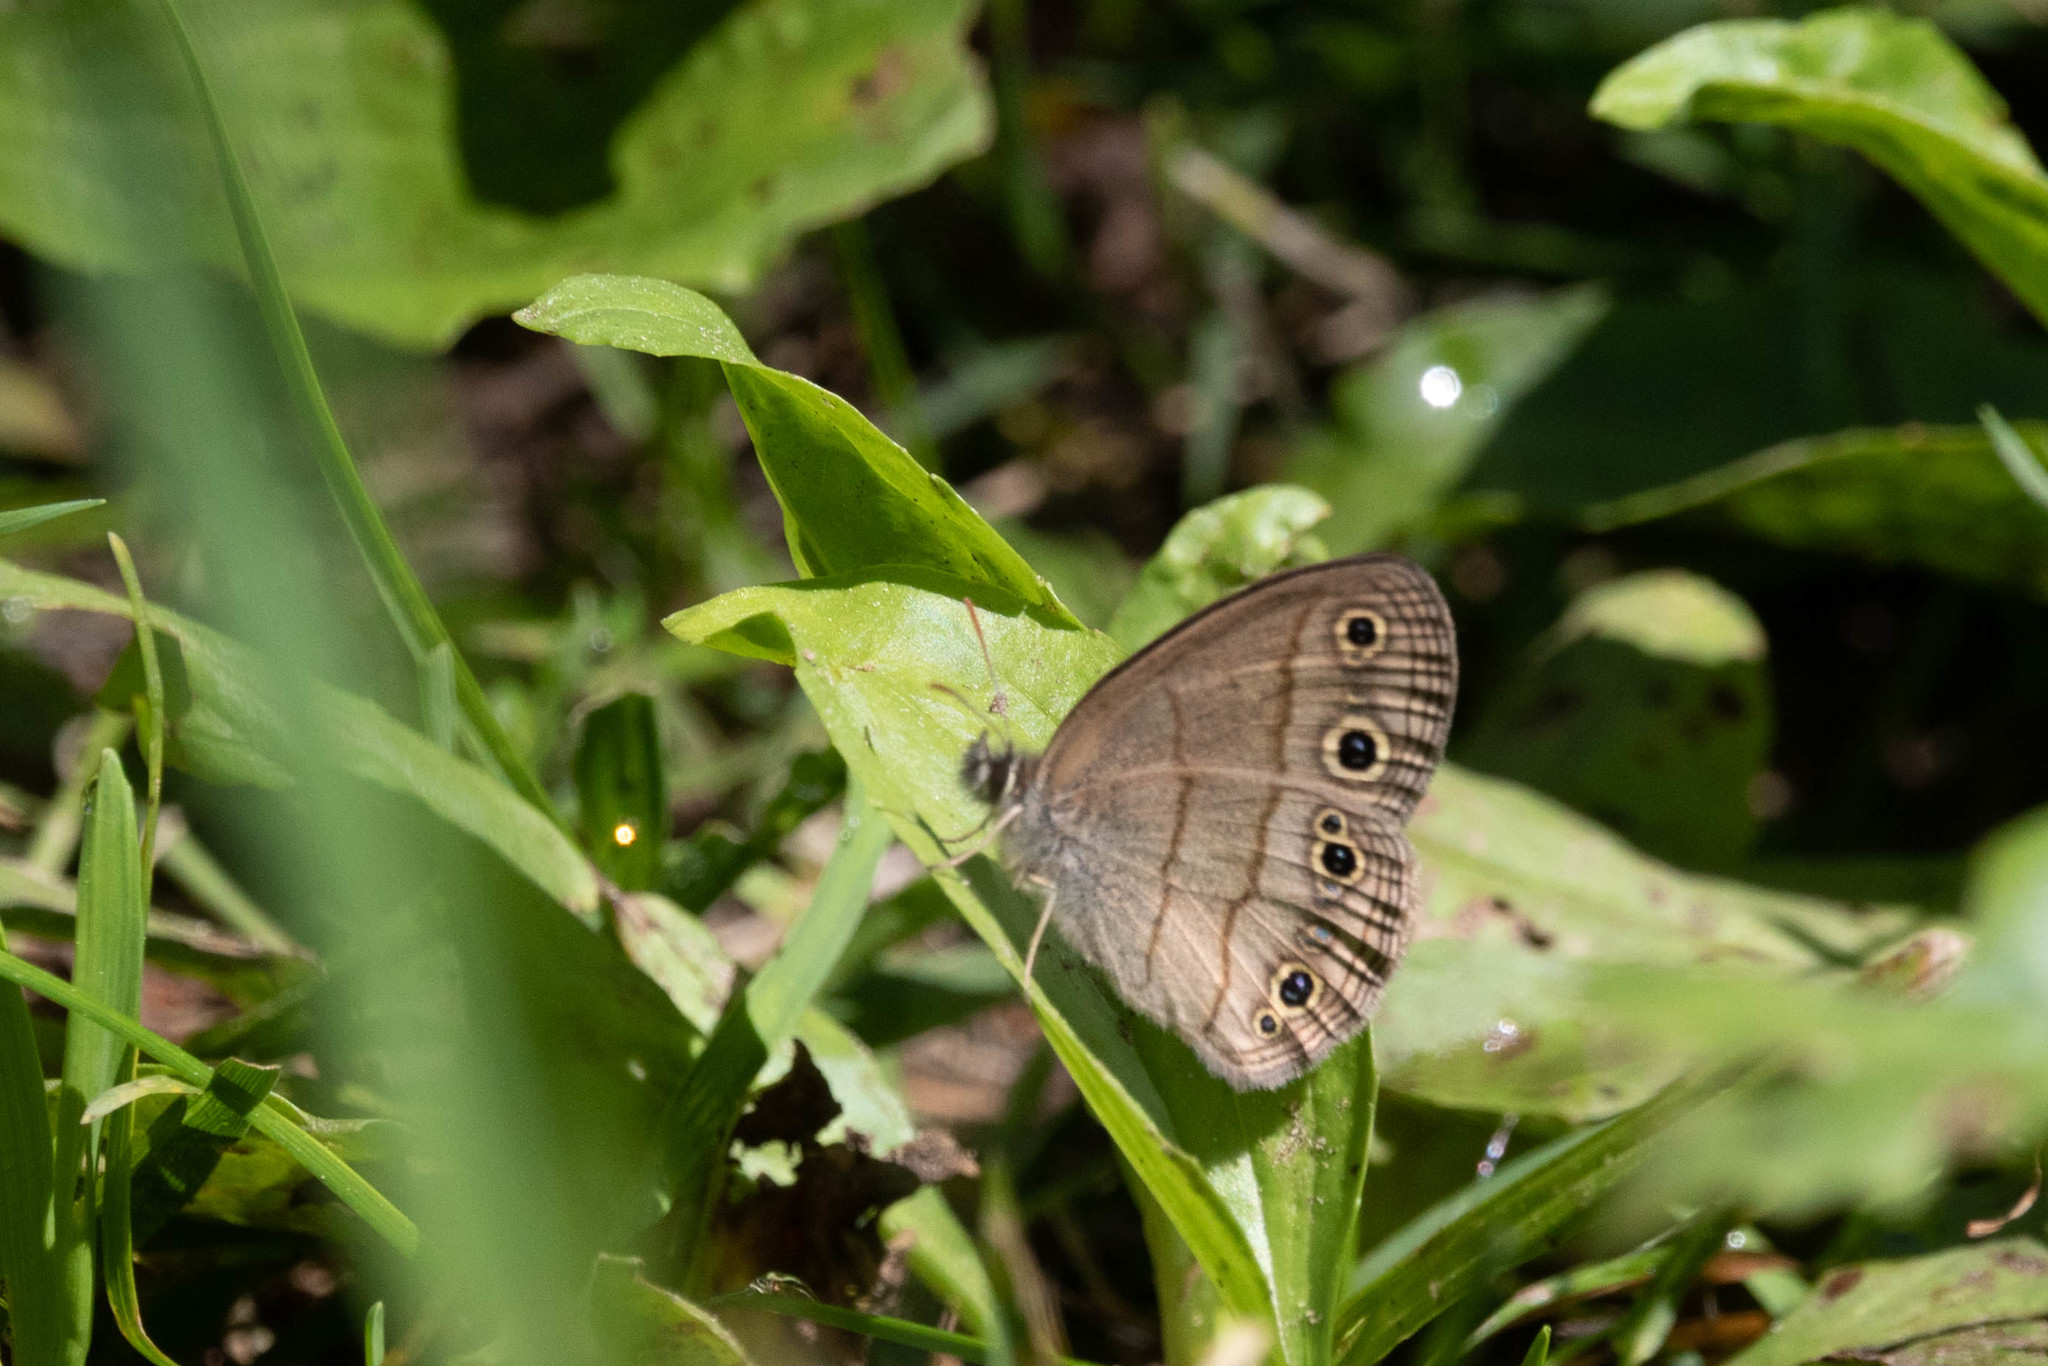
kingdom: Animalia
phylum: Arthropoda
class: Insecta
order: Lepidoptera
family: Nymphalidae
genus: Euptychia
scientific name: Euptychia cymela
